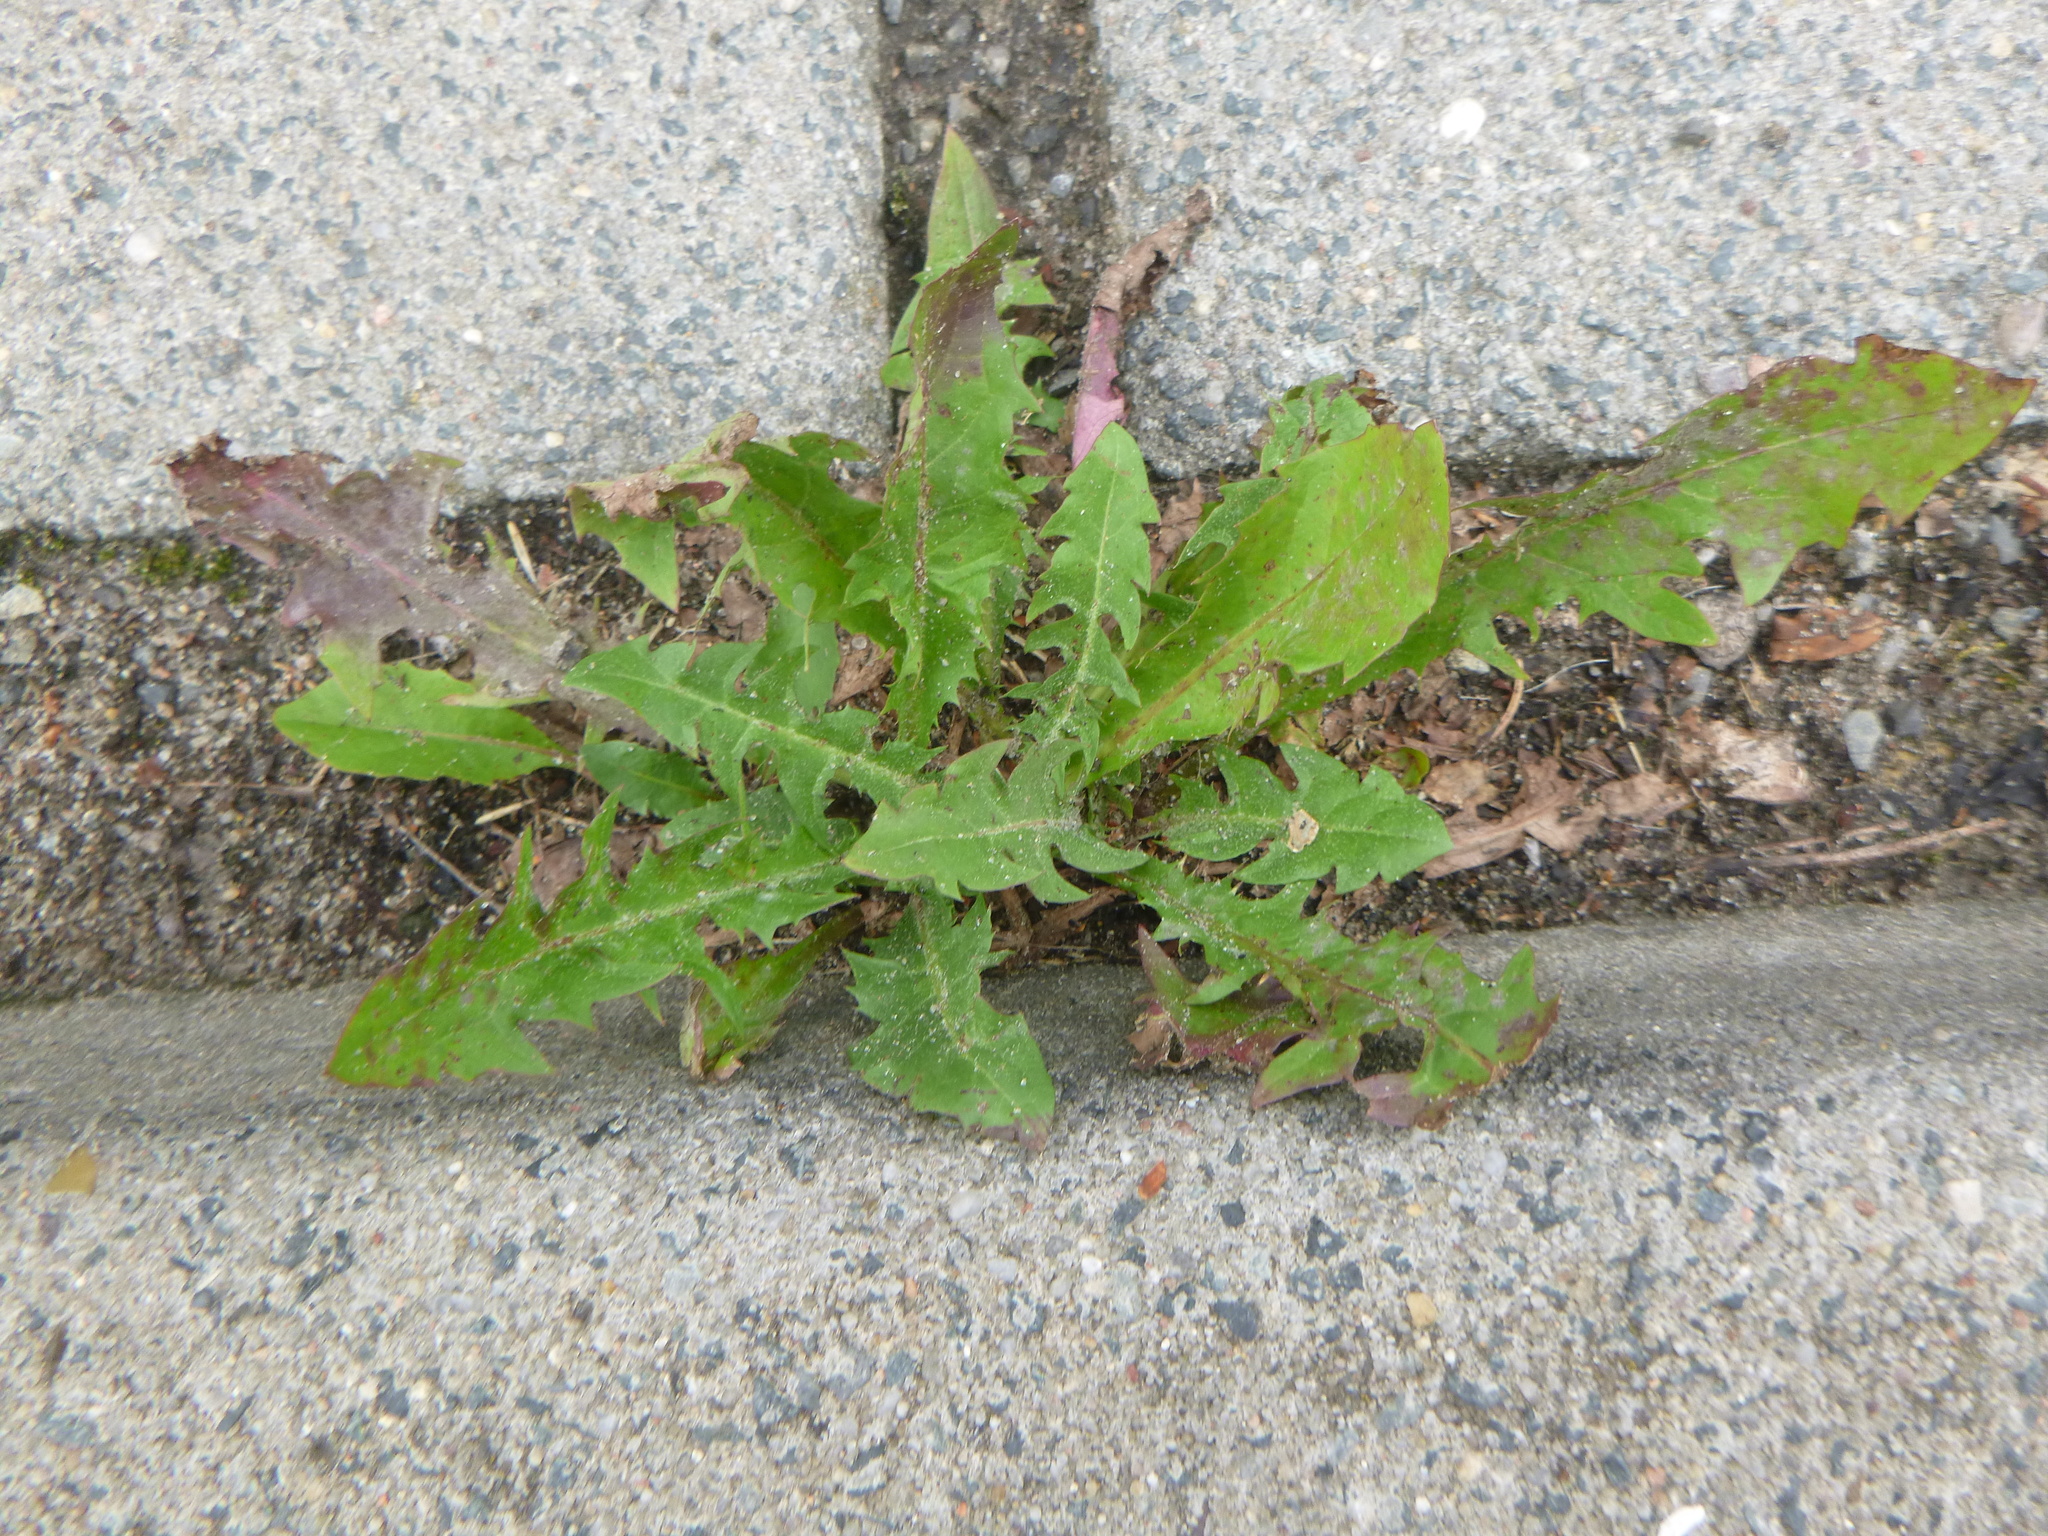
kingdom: Plantae
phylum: Tracheophyta
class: Magnoliopsida
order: Asterales
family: Asteraceae
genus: Taraxacum
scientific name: Taraxacum officinale
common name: Common dandelion
